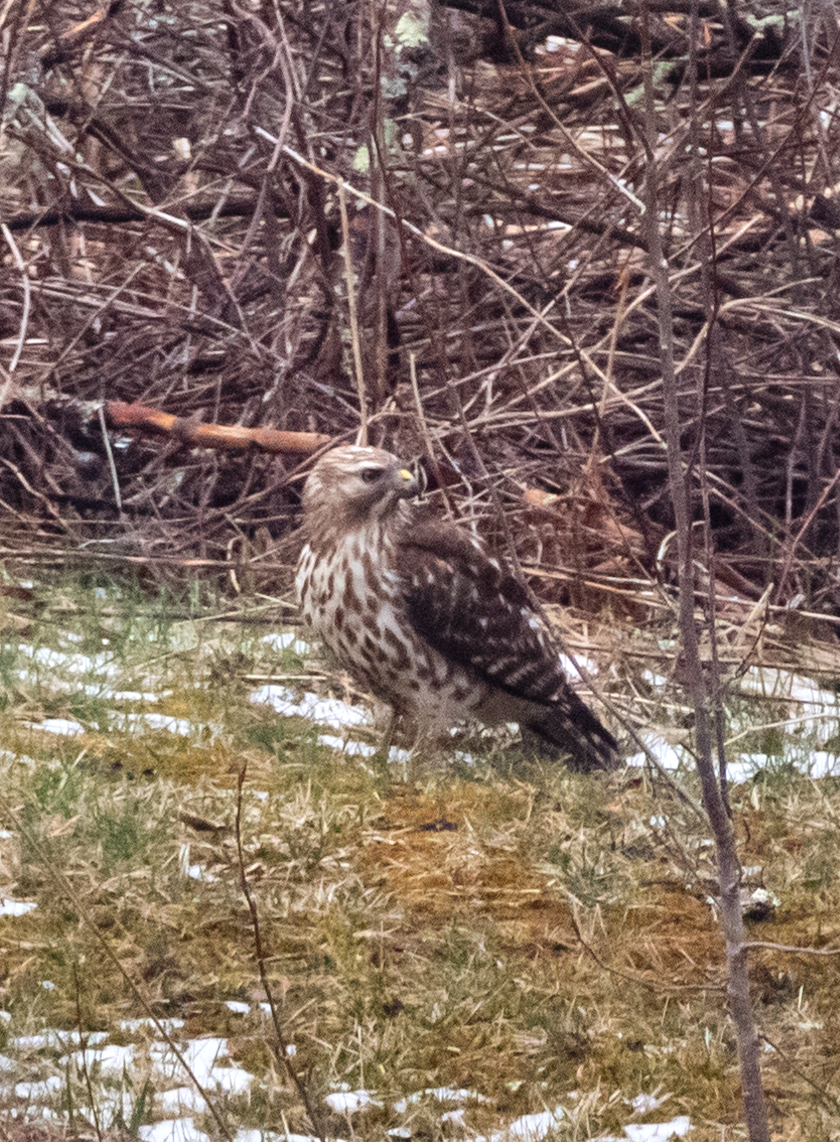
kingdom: Animalia
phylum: Chordata
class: Aves
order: Accipitriformes
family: Accipitridae
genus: Buteo
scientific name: Buteo lineatus
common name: Red-shouldered hawk
